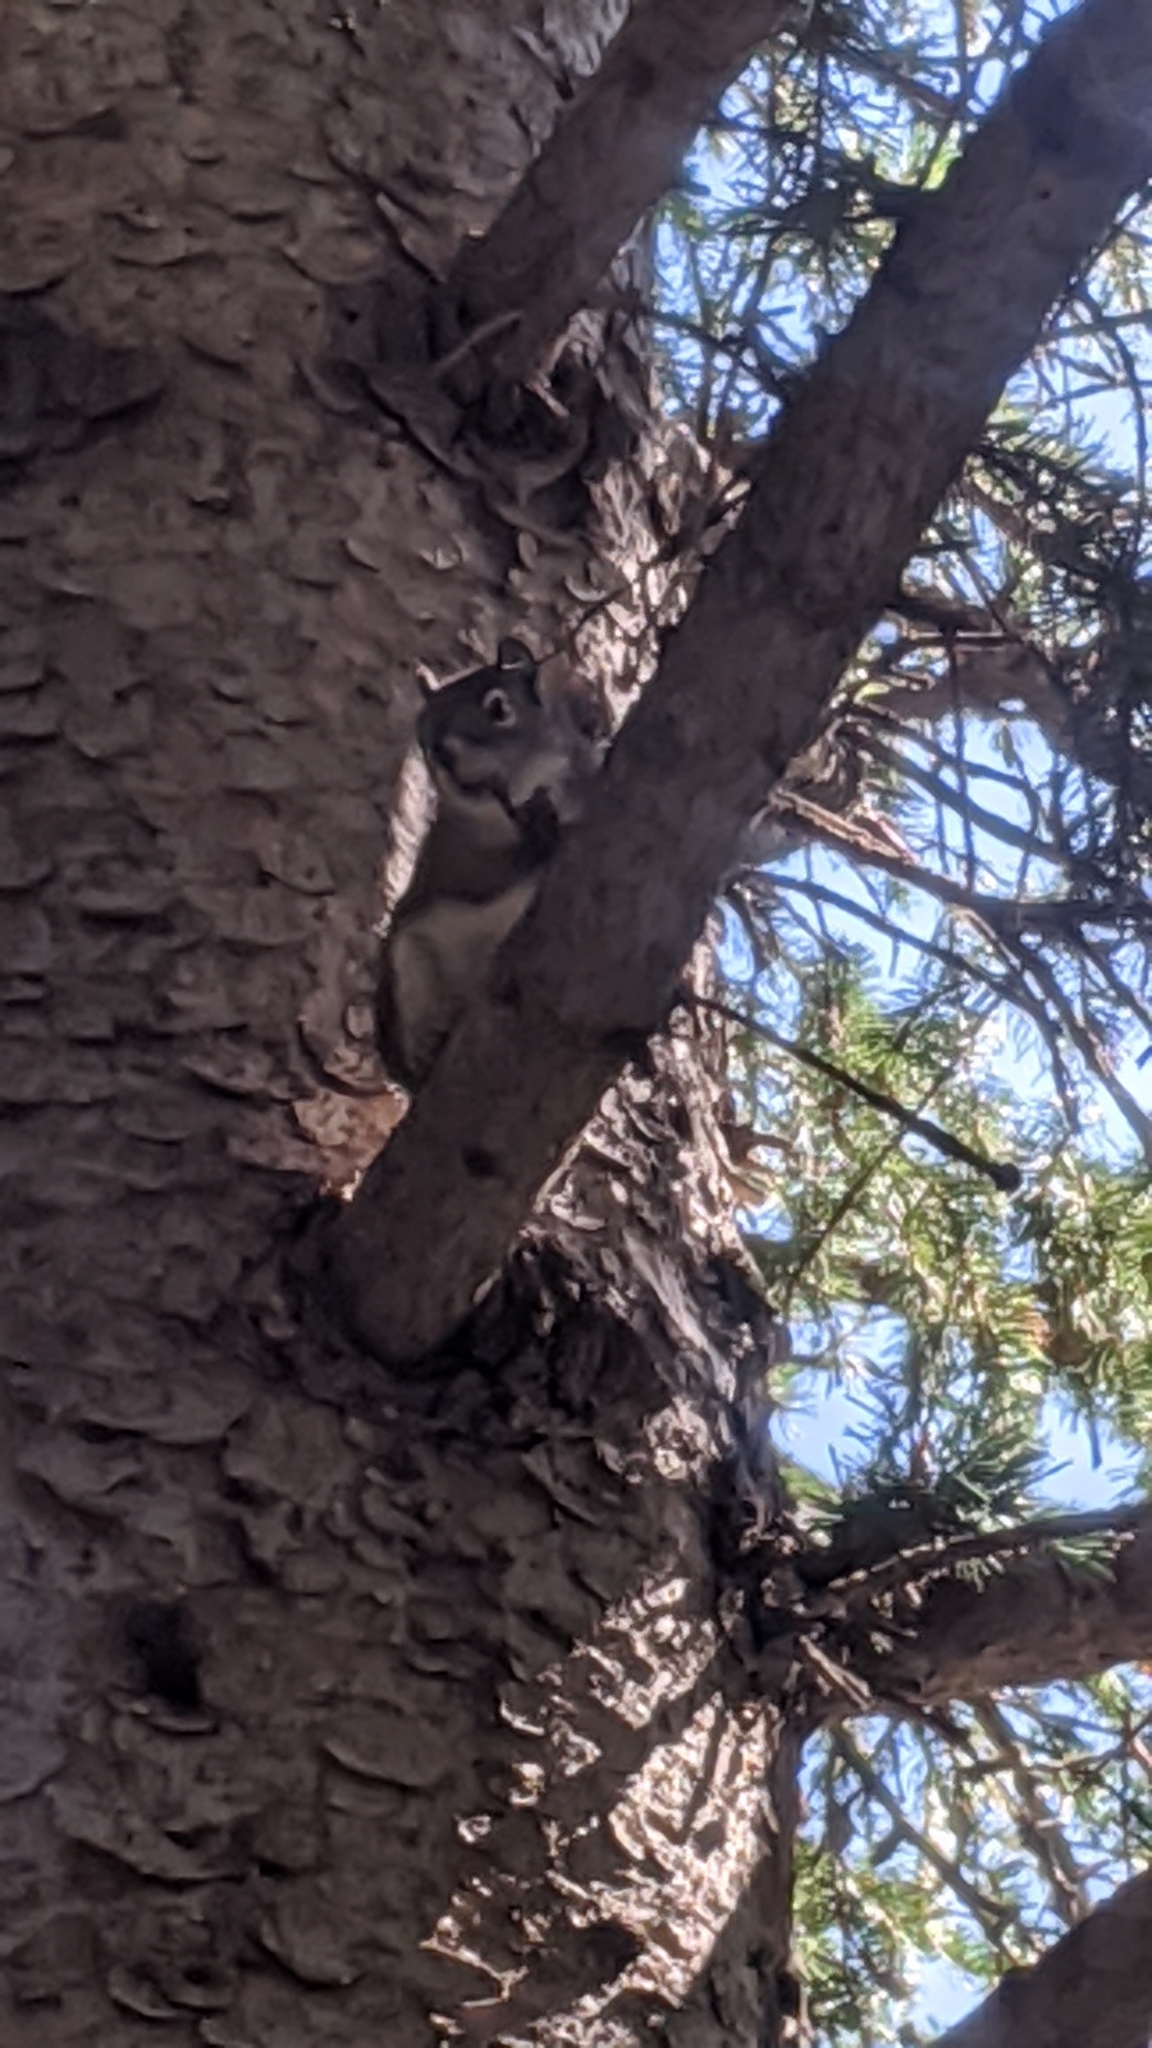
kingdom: Animalia
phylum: Chordata
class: Mammalia
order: Rodentia
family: Sciuridae
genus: Tamiasciurus
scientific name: Tamiasciurus hudsonicus
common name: Red squirrel
